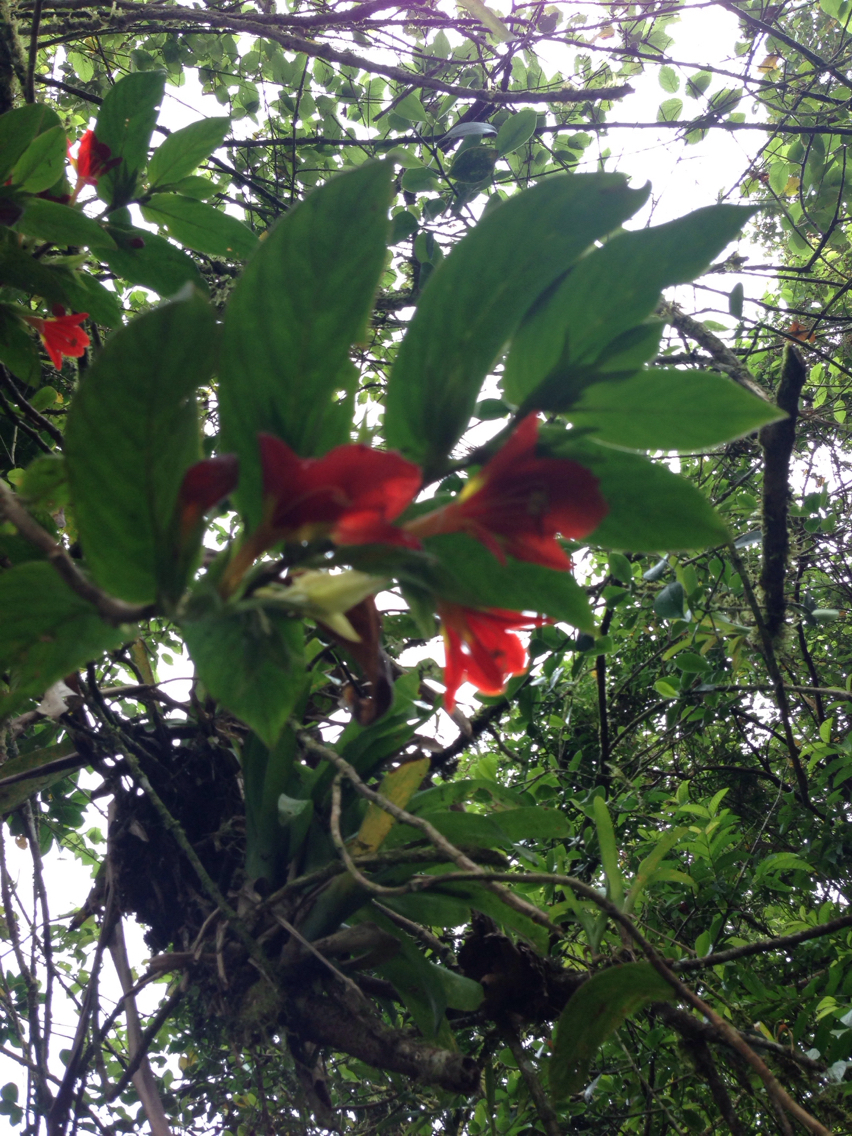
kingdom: Plantae
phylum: Tracheophyta
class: Magnoliopsida
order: Lamiales
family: Gesneriaceae
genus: Columnea
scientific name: Columnea nicaraguensis
